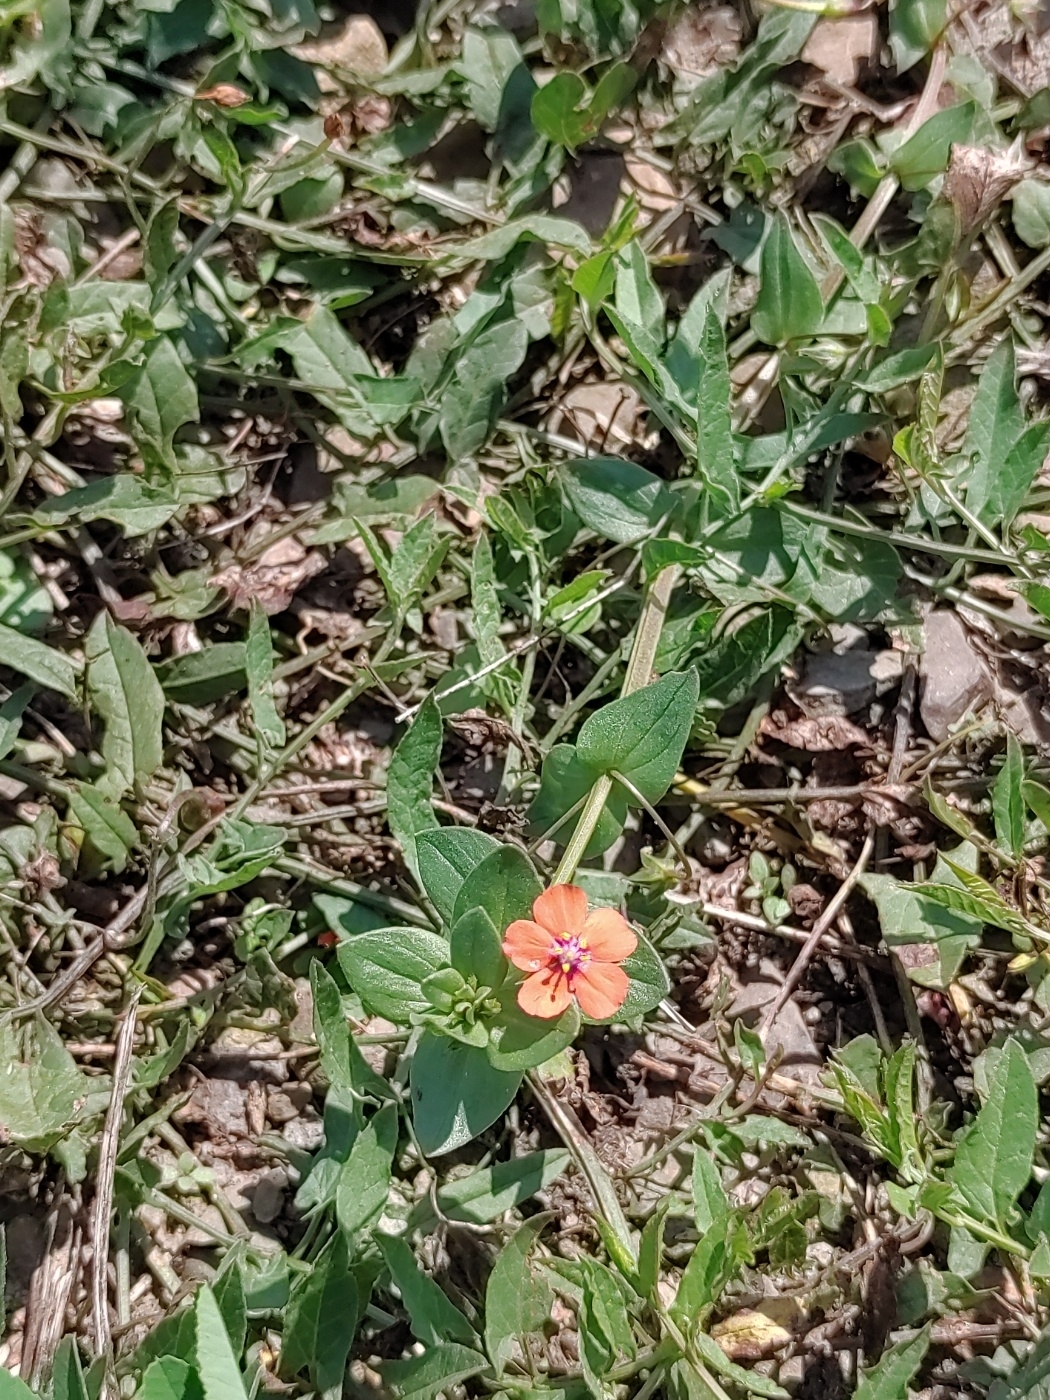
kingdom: Plantae
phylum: Tracheophyta
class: Magnoliopsida
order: Ericales
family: Primulaceae
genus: Lysimachia
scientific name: Lysimachia arvensis
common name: Scarlet pimpernel
